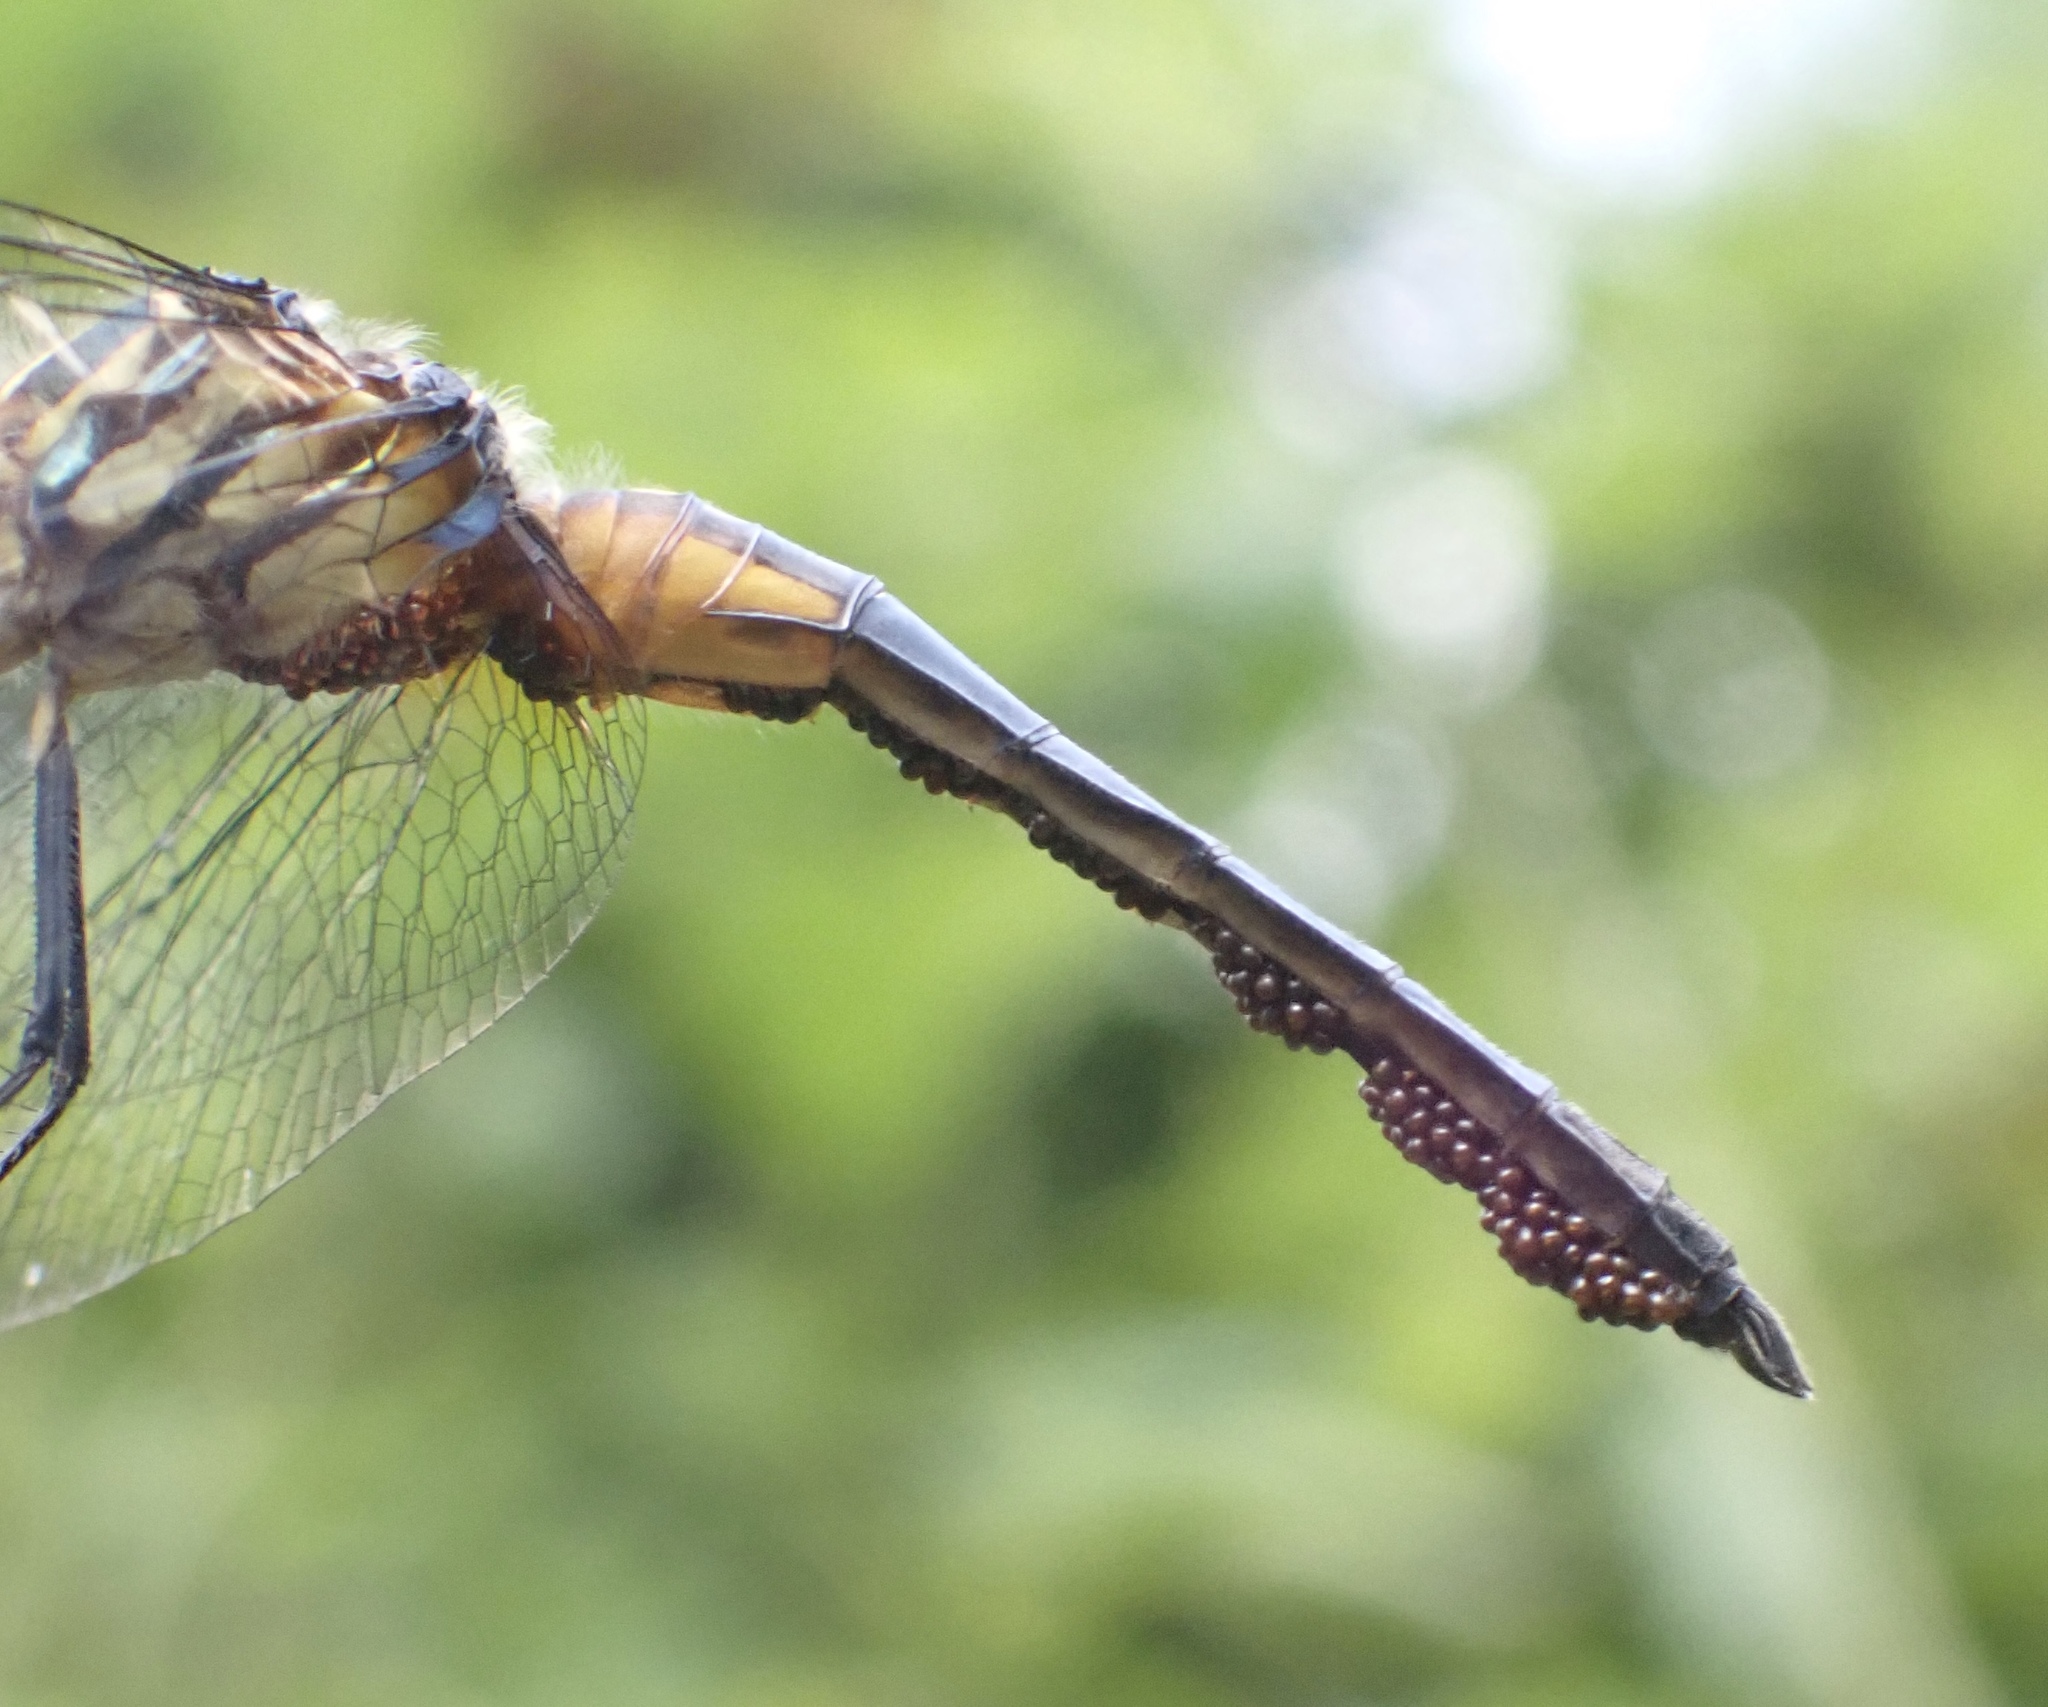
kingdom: Animalia
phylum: Arthropoda
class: Insecta
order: Odonata
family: Libellulidae
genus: Pachydiplax
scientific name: Pachydiplax longipennis
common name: Blue dasher
